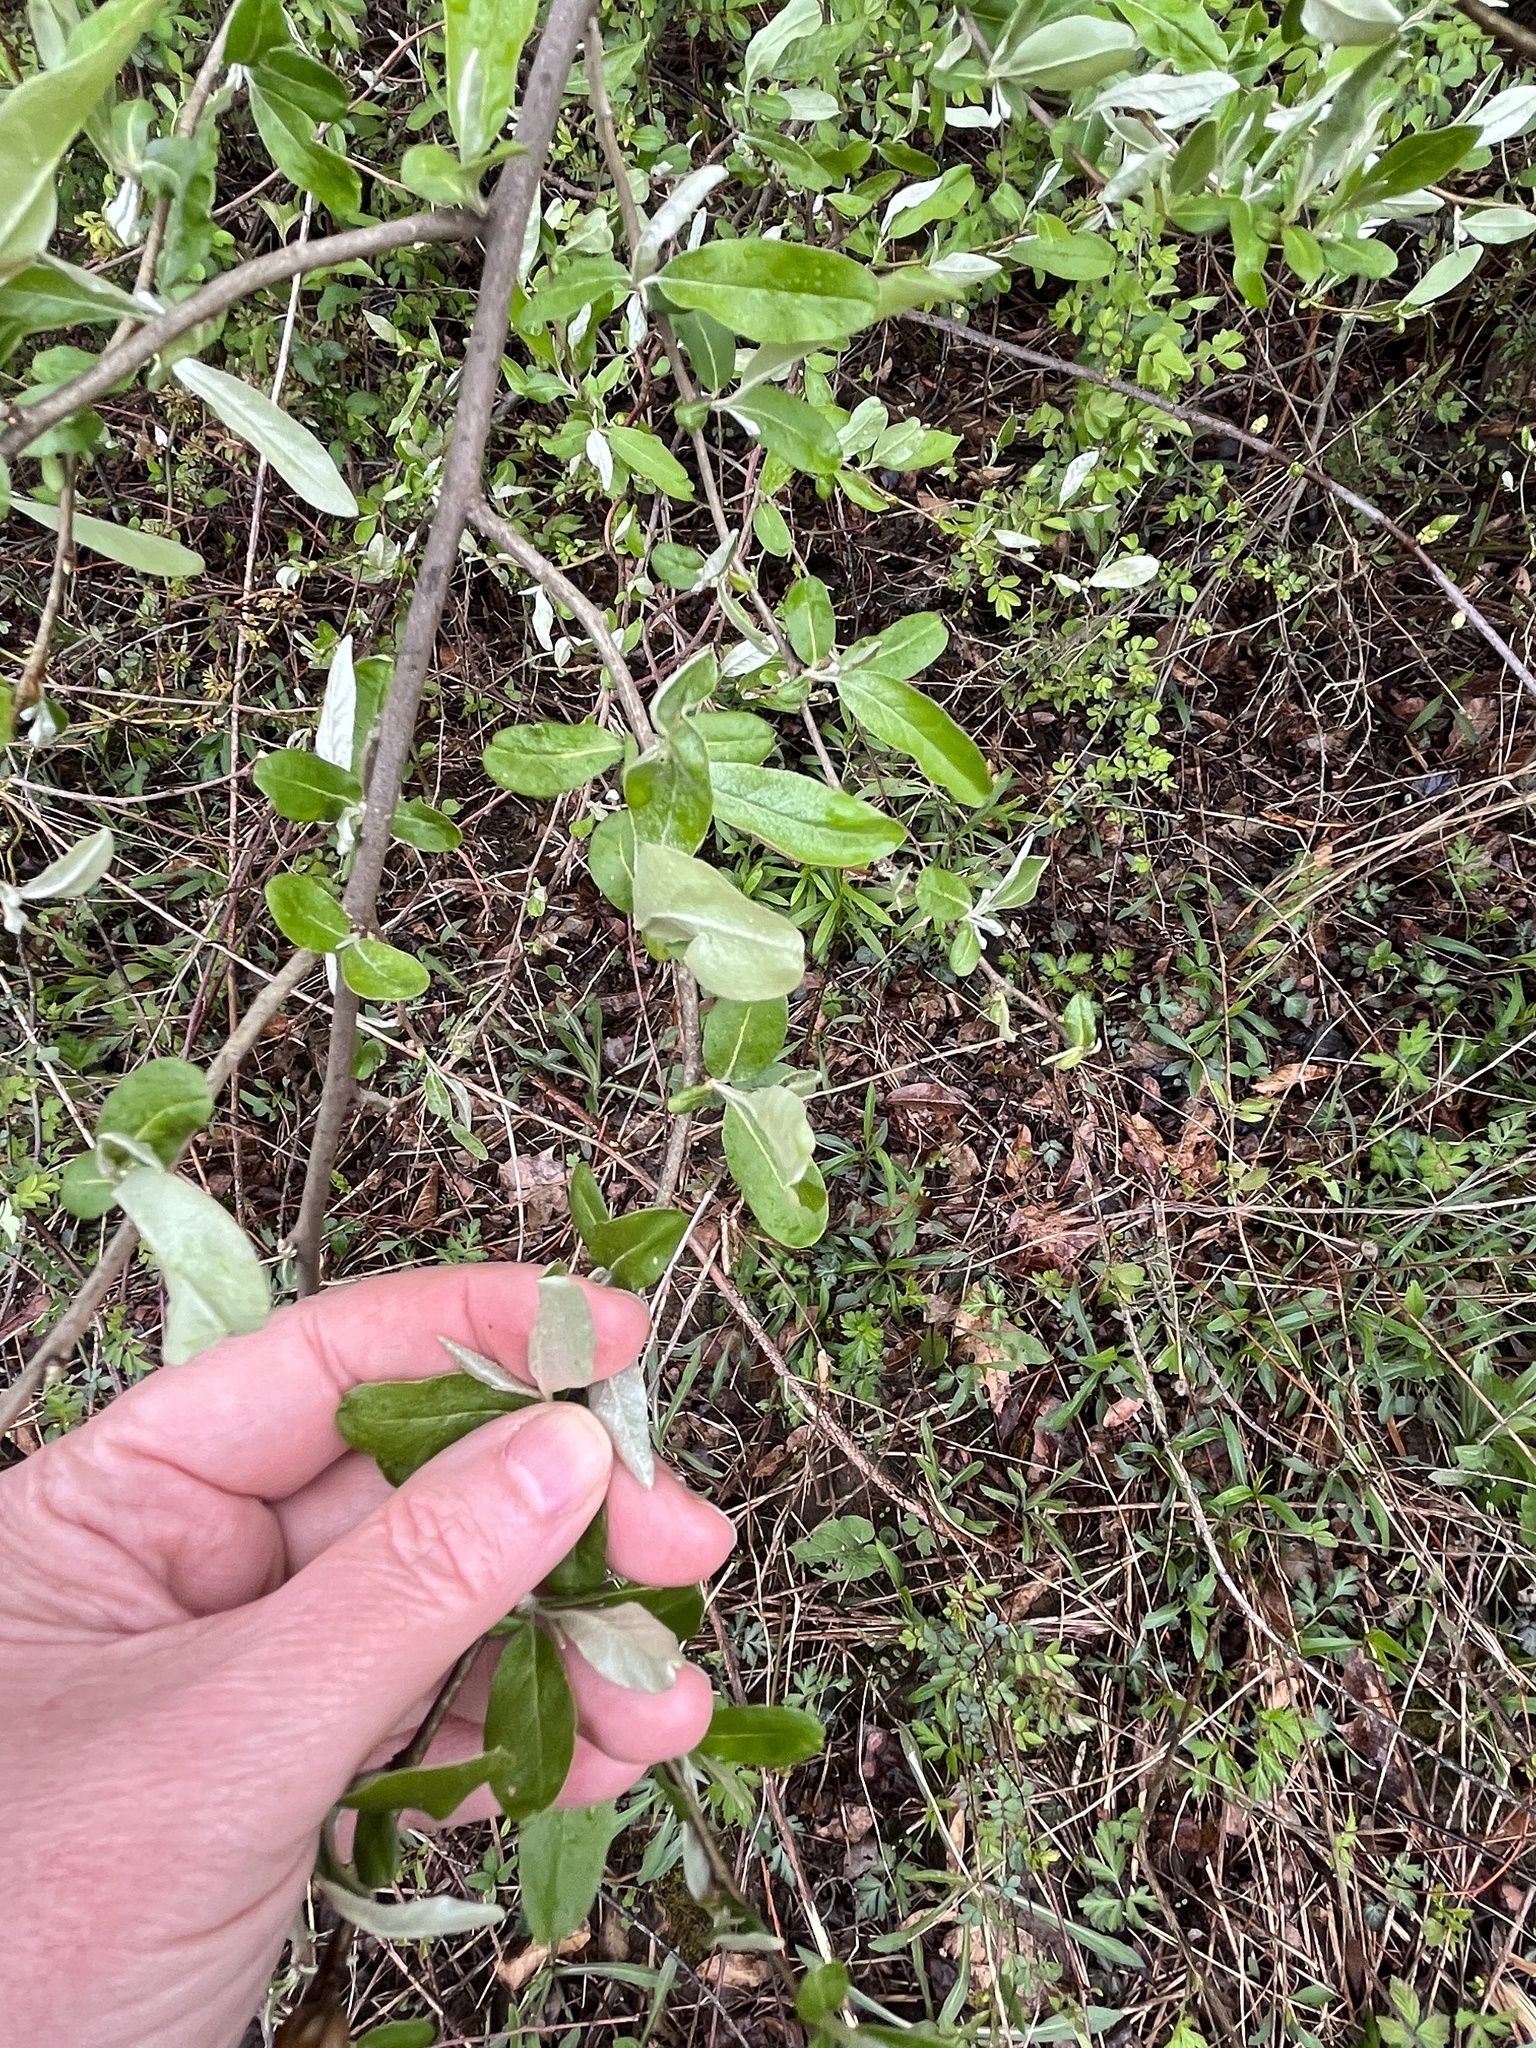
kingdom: Plantae
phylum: Tracheophyta
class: Magnoliopsida
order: Rosales
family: Elaeagnaceae
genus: Elaeagnus
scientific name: Elaeagnus umbellata
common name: Autumn olive
